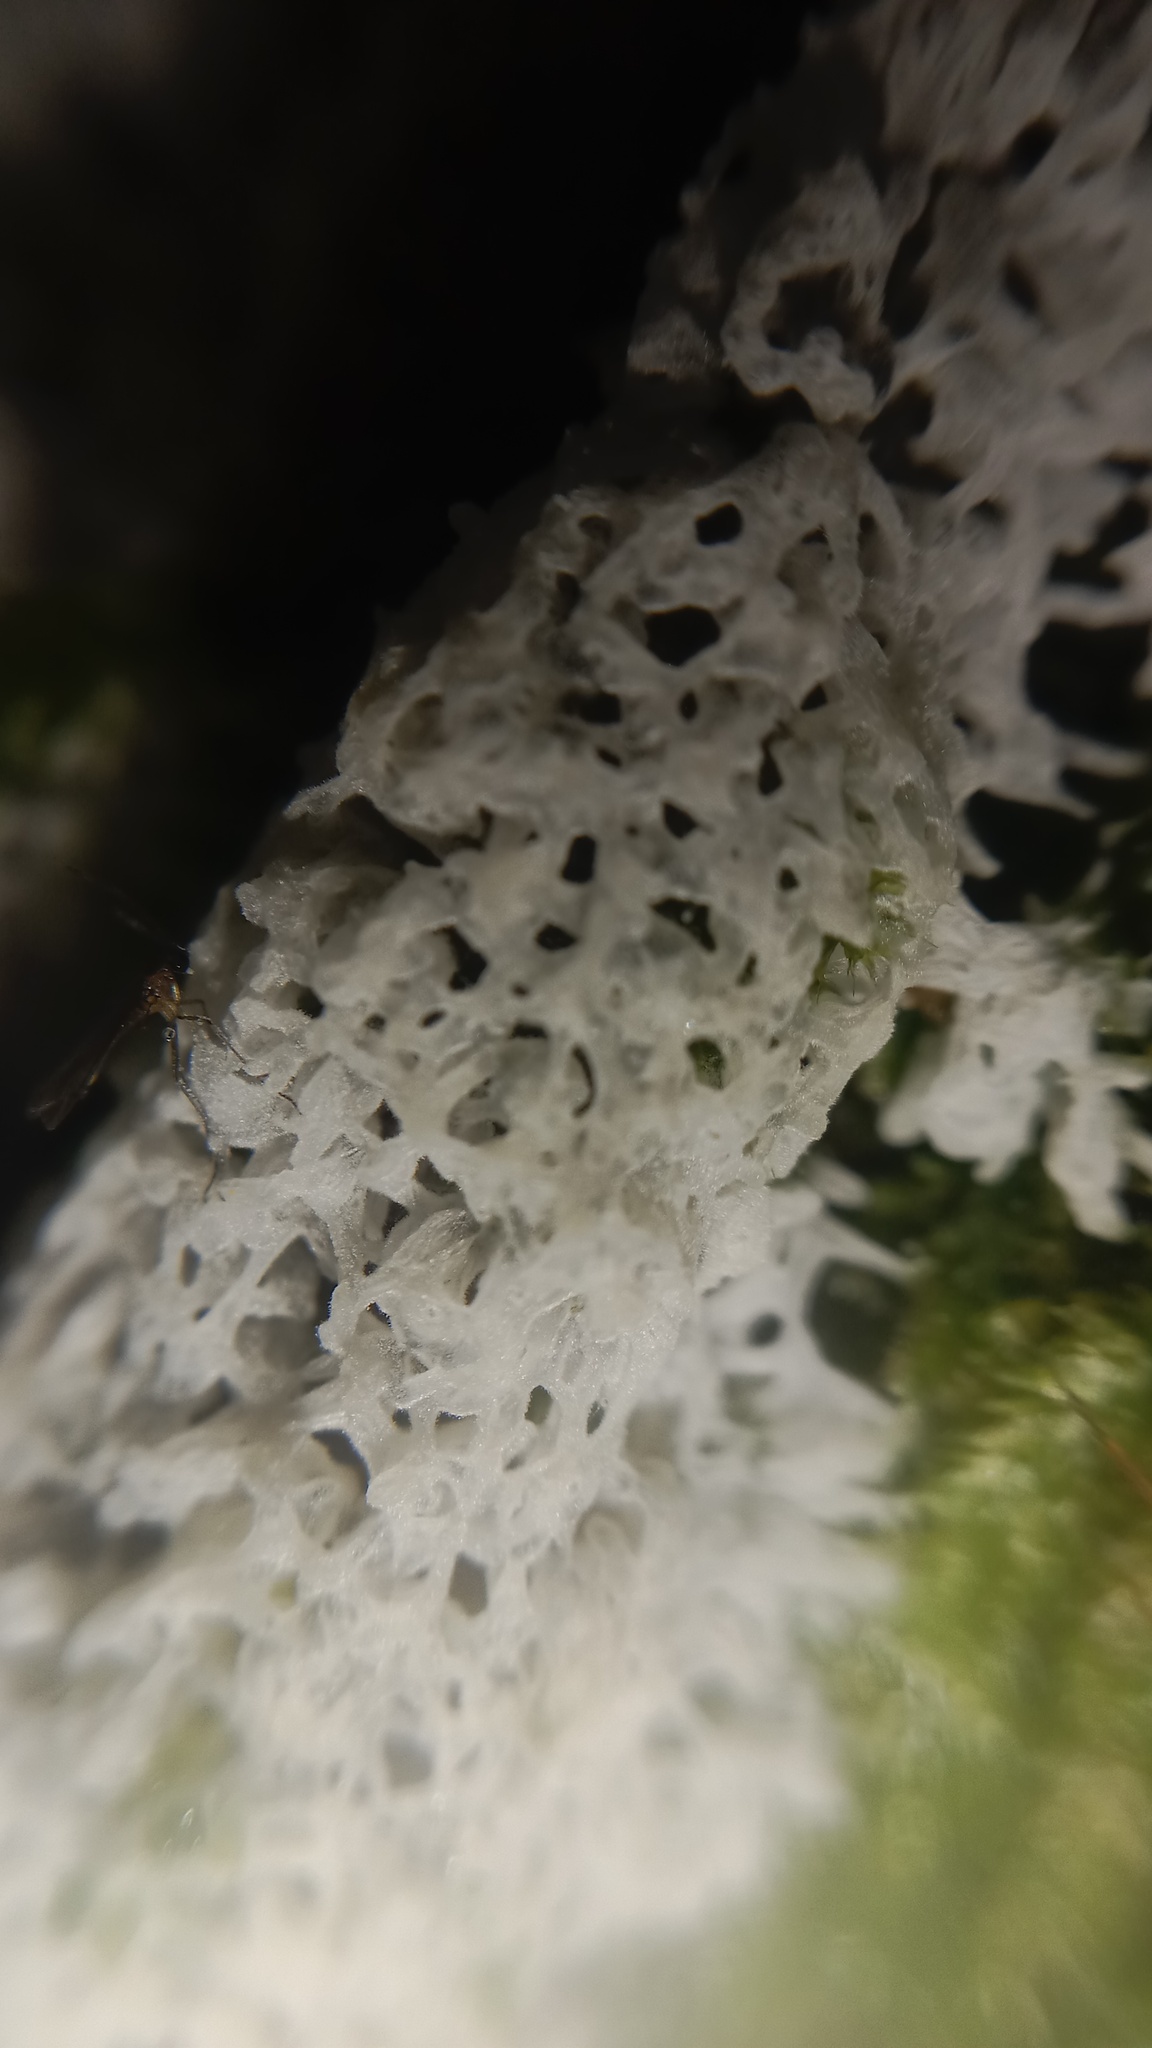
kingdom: Protozoa
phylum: Mycetozoa
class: Protosteliomycetes
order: Ceratiomyxales
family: Ceratiomyxaceae
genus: Ceratiomyxa
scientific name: Ceratiomyxa fruticulosa
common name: Honeycomb coral slime mold
